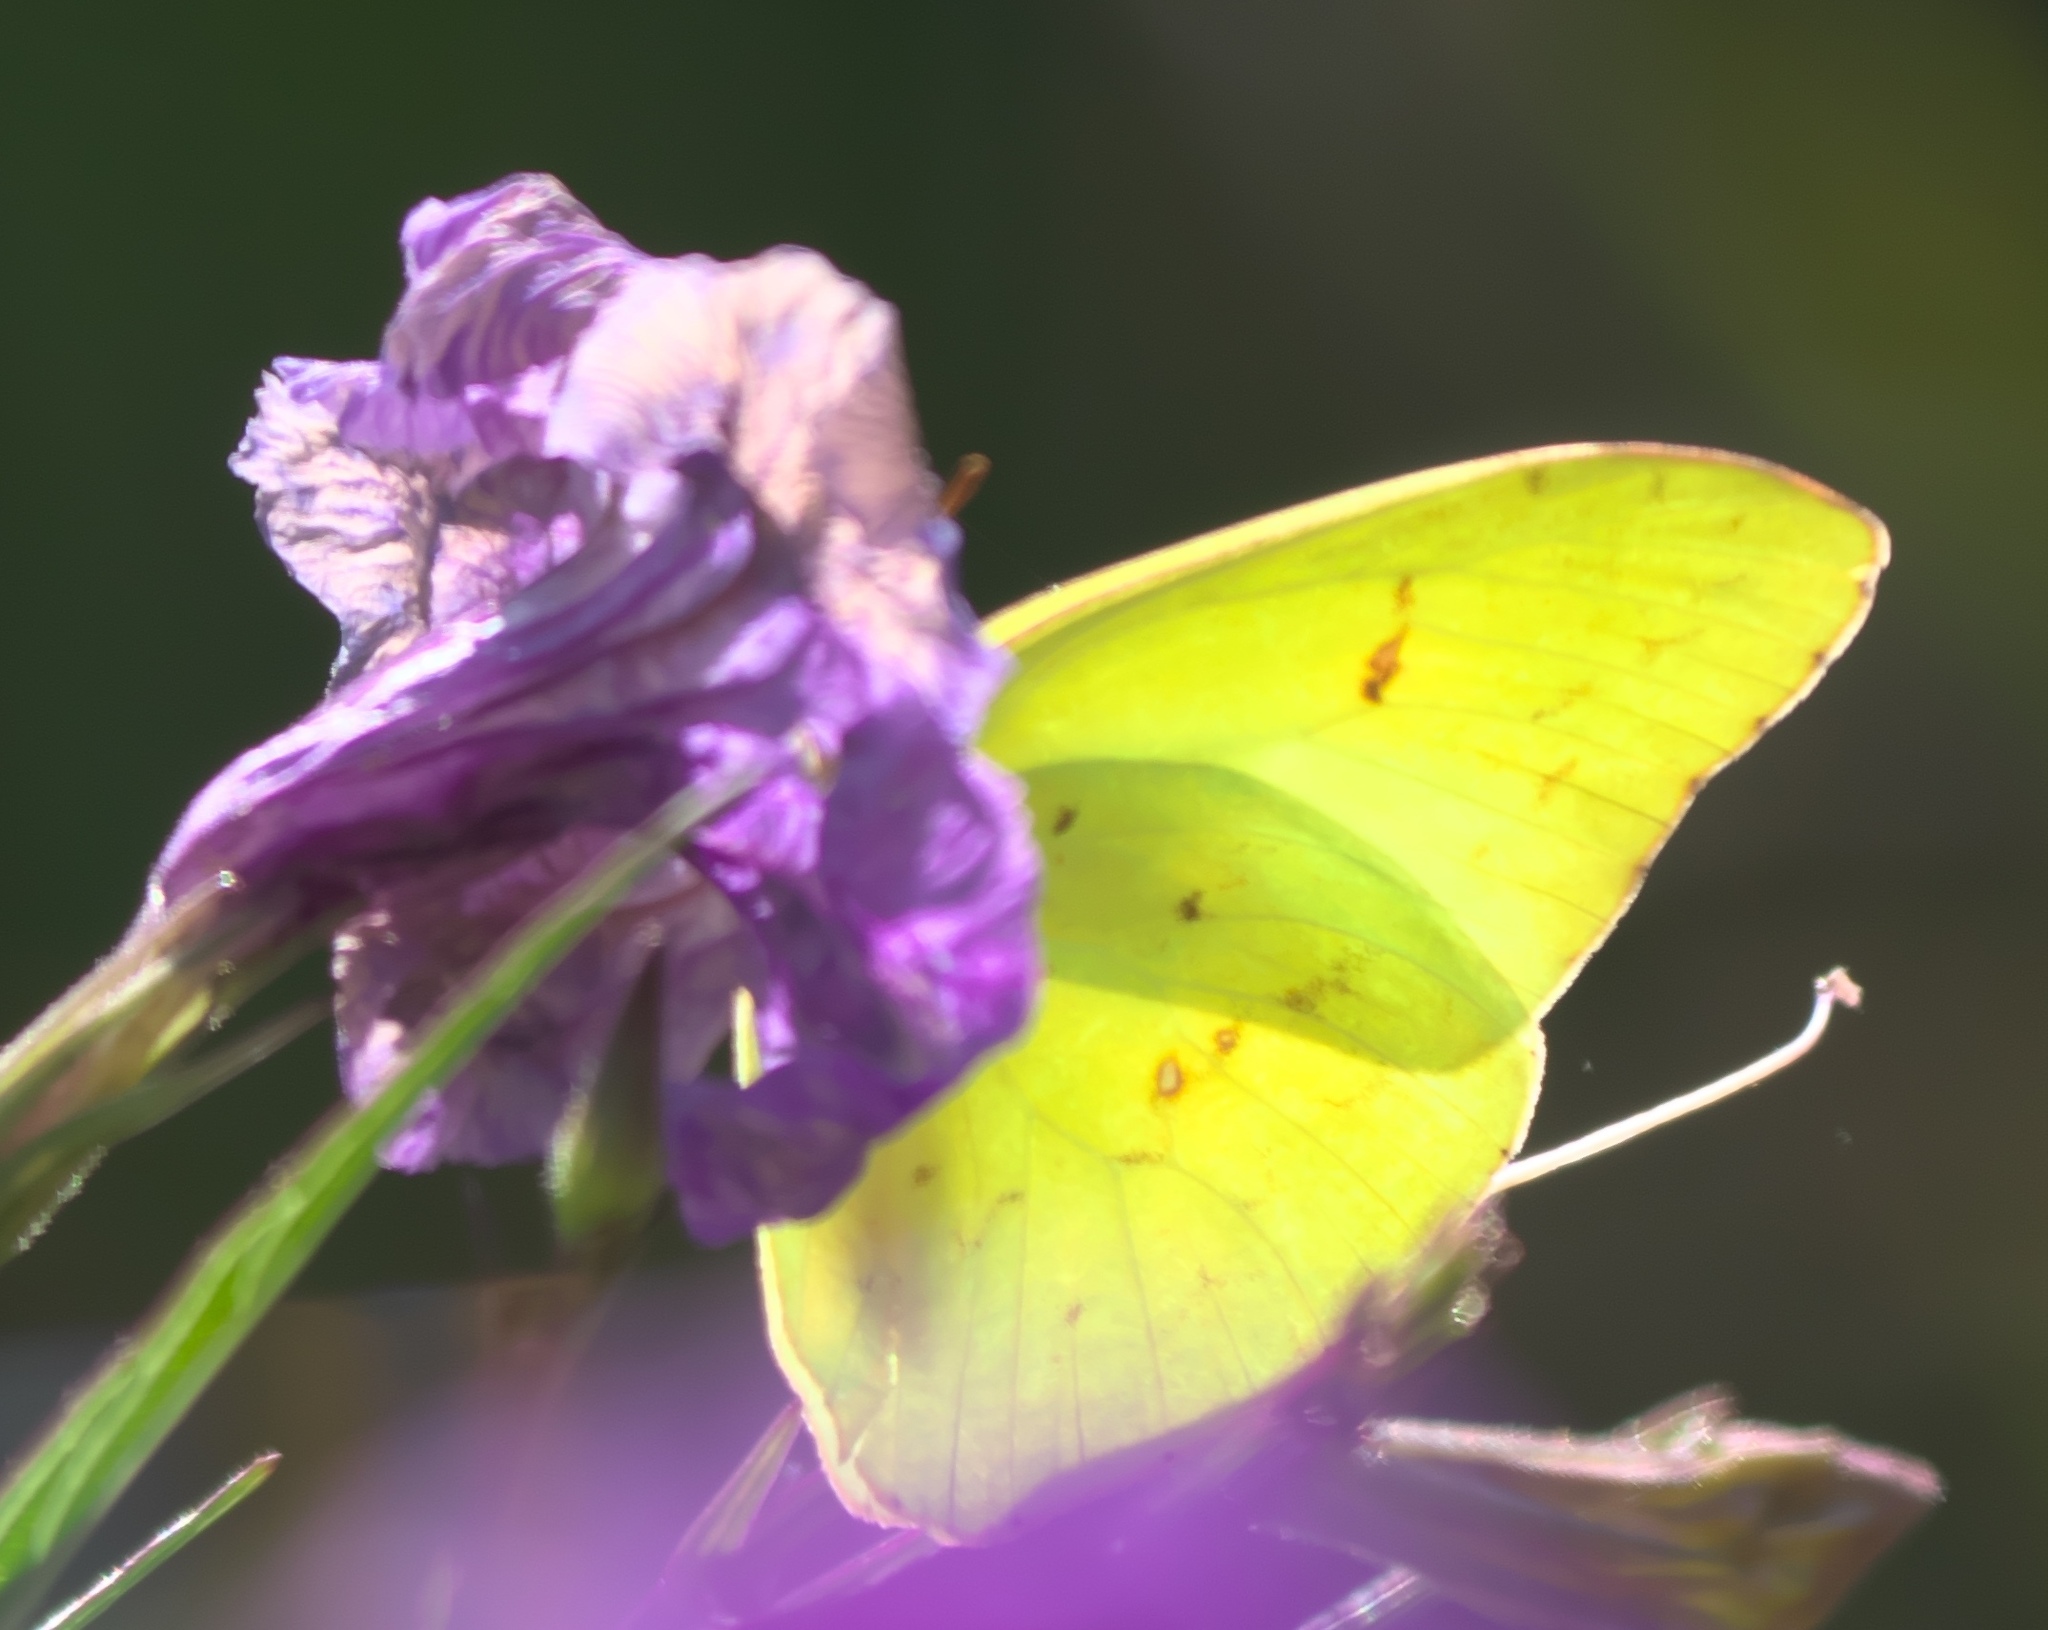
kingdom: Animalia
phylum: Arthropoda
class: Insecta
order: Lepidoptera
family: Pieridae
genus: Phoebis
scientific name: Phoebis sennae
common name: Cloudless sulphur
